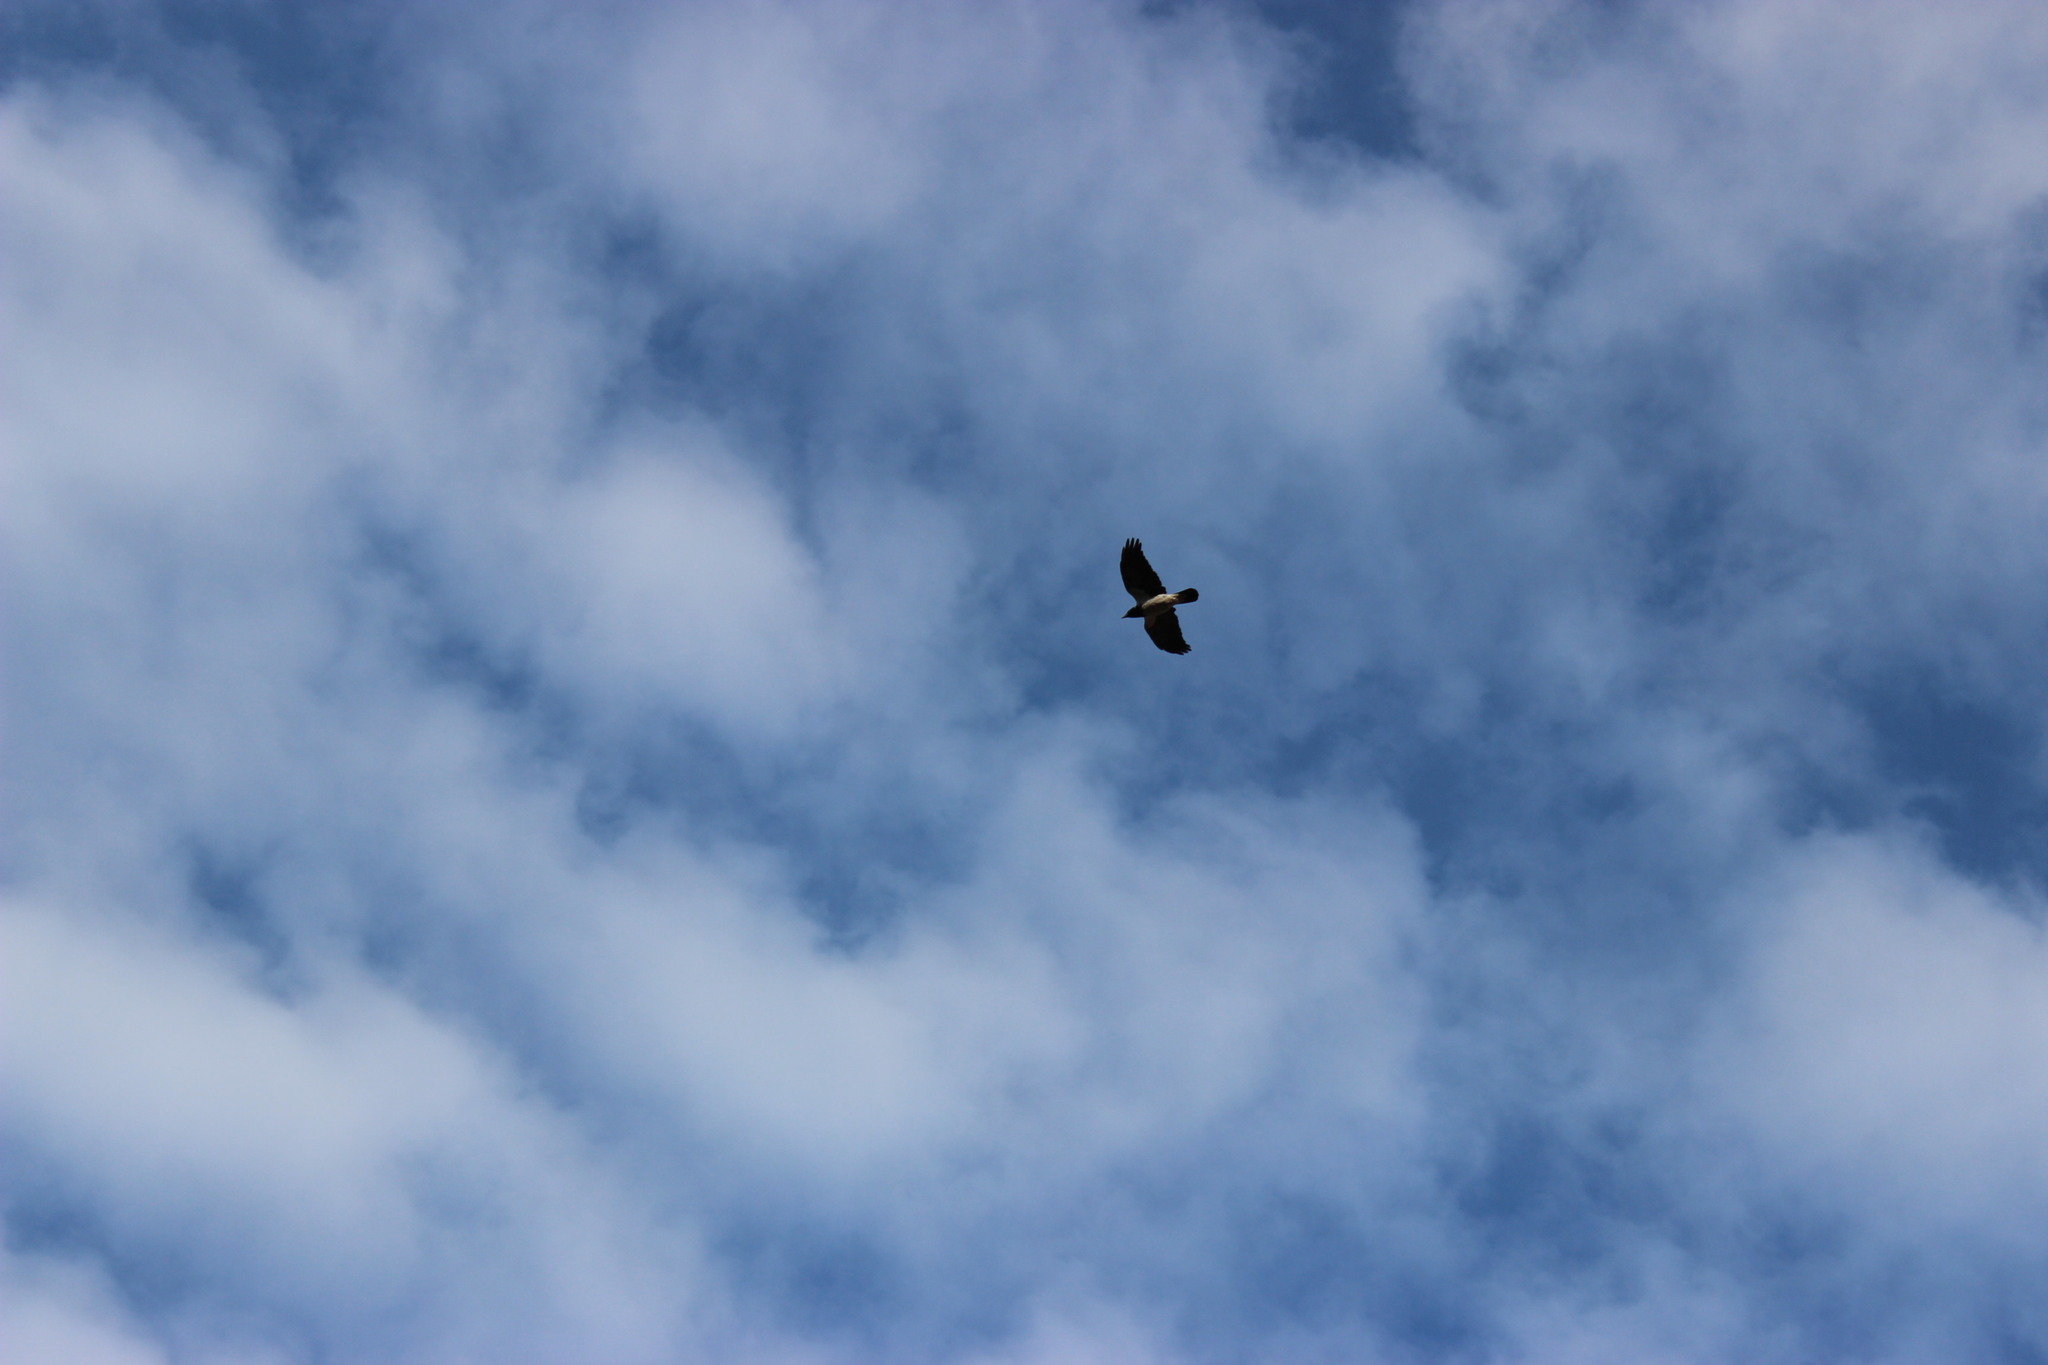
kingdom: Animalia
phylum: Chordata
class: Aves
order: Passeriformes
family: Corvidae
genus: Corvus
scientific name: Corvus cornix
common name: Hooded crow
